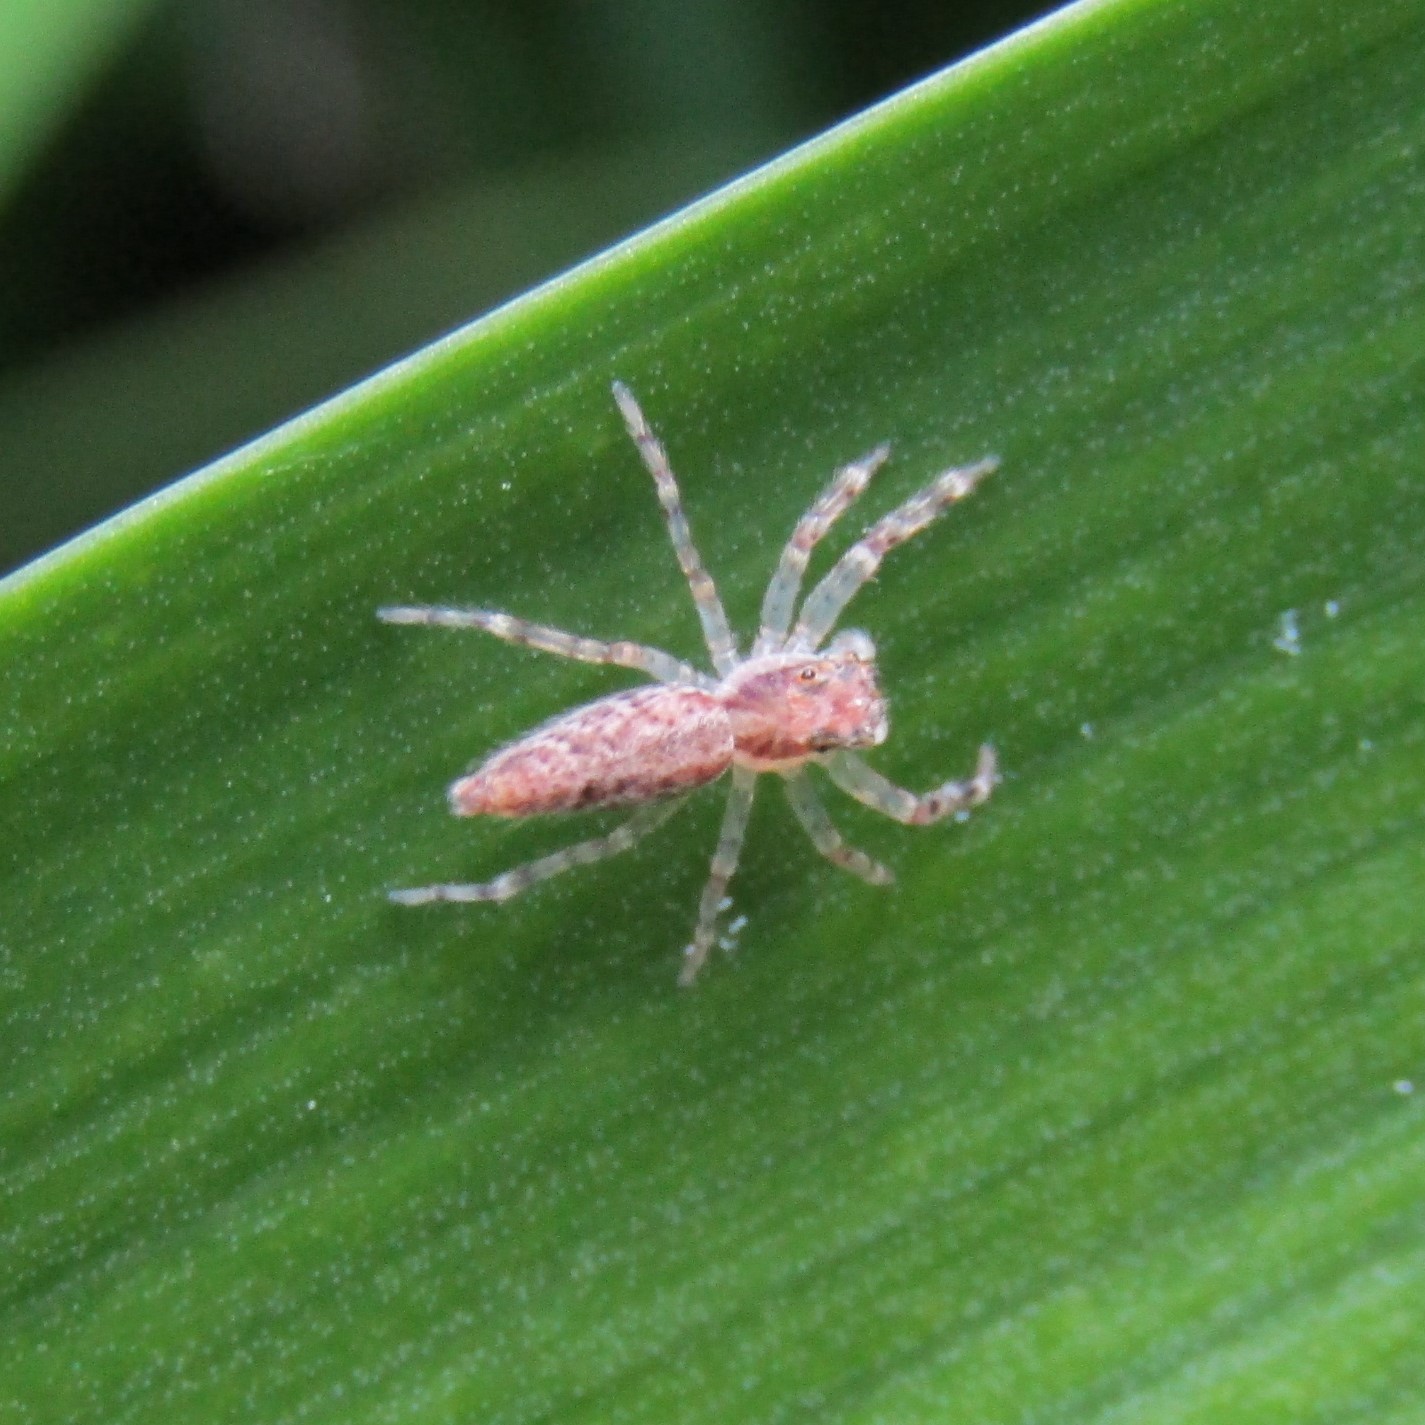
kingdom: Animalia
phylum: Arthropoda
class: Arachnida
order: Araneae
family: Salticidae
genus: Helpis
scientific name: Helpis minitabunda
